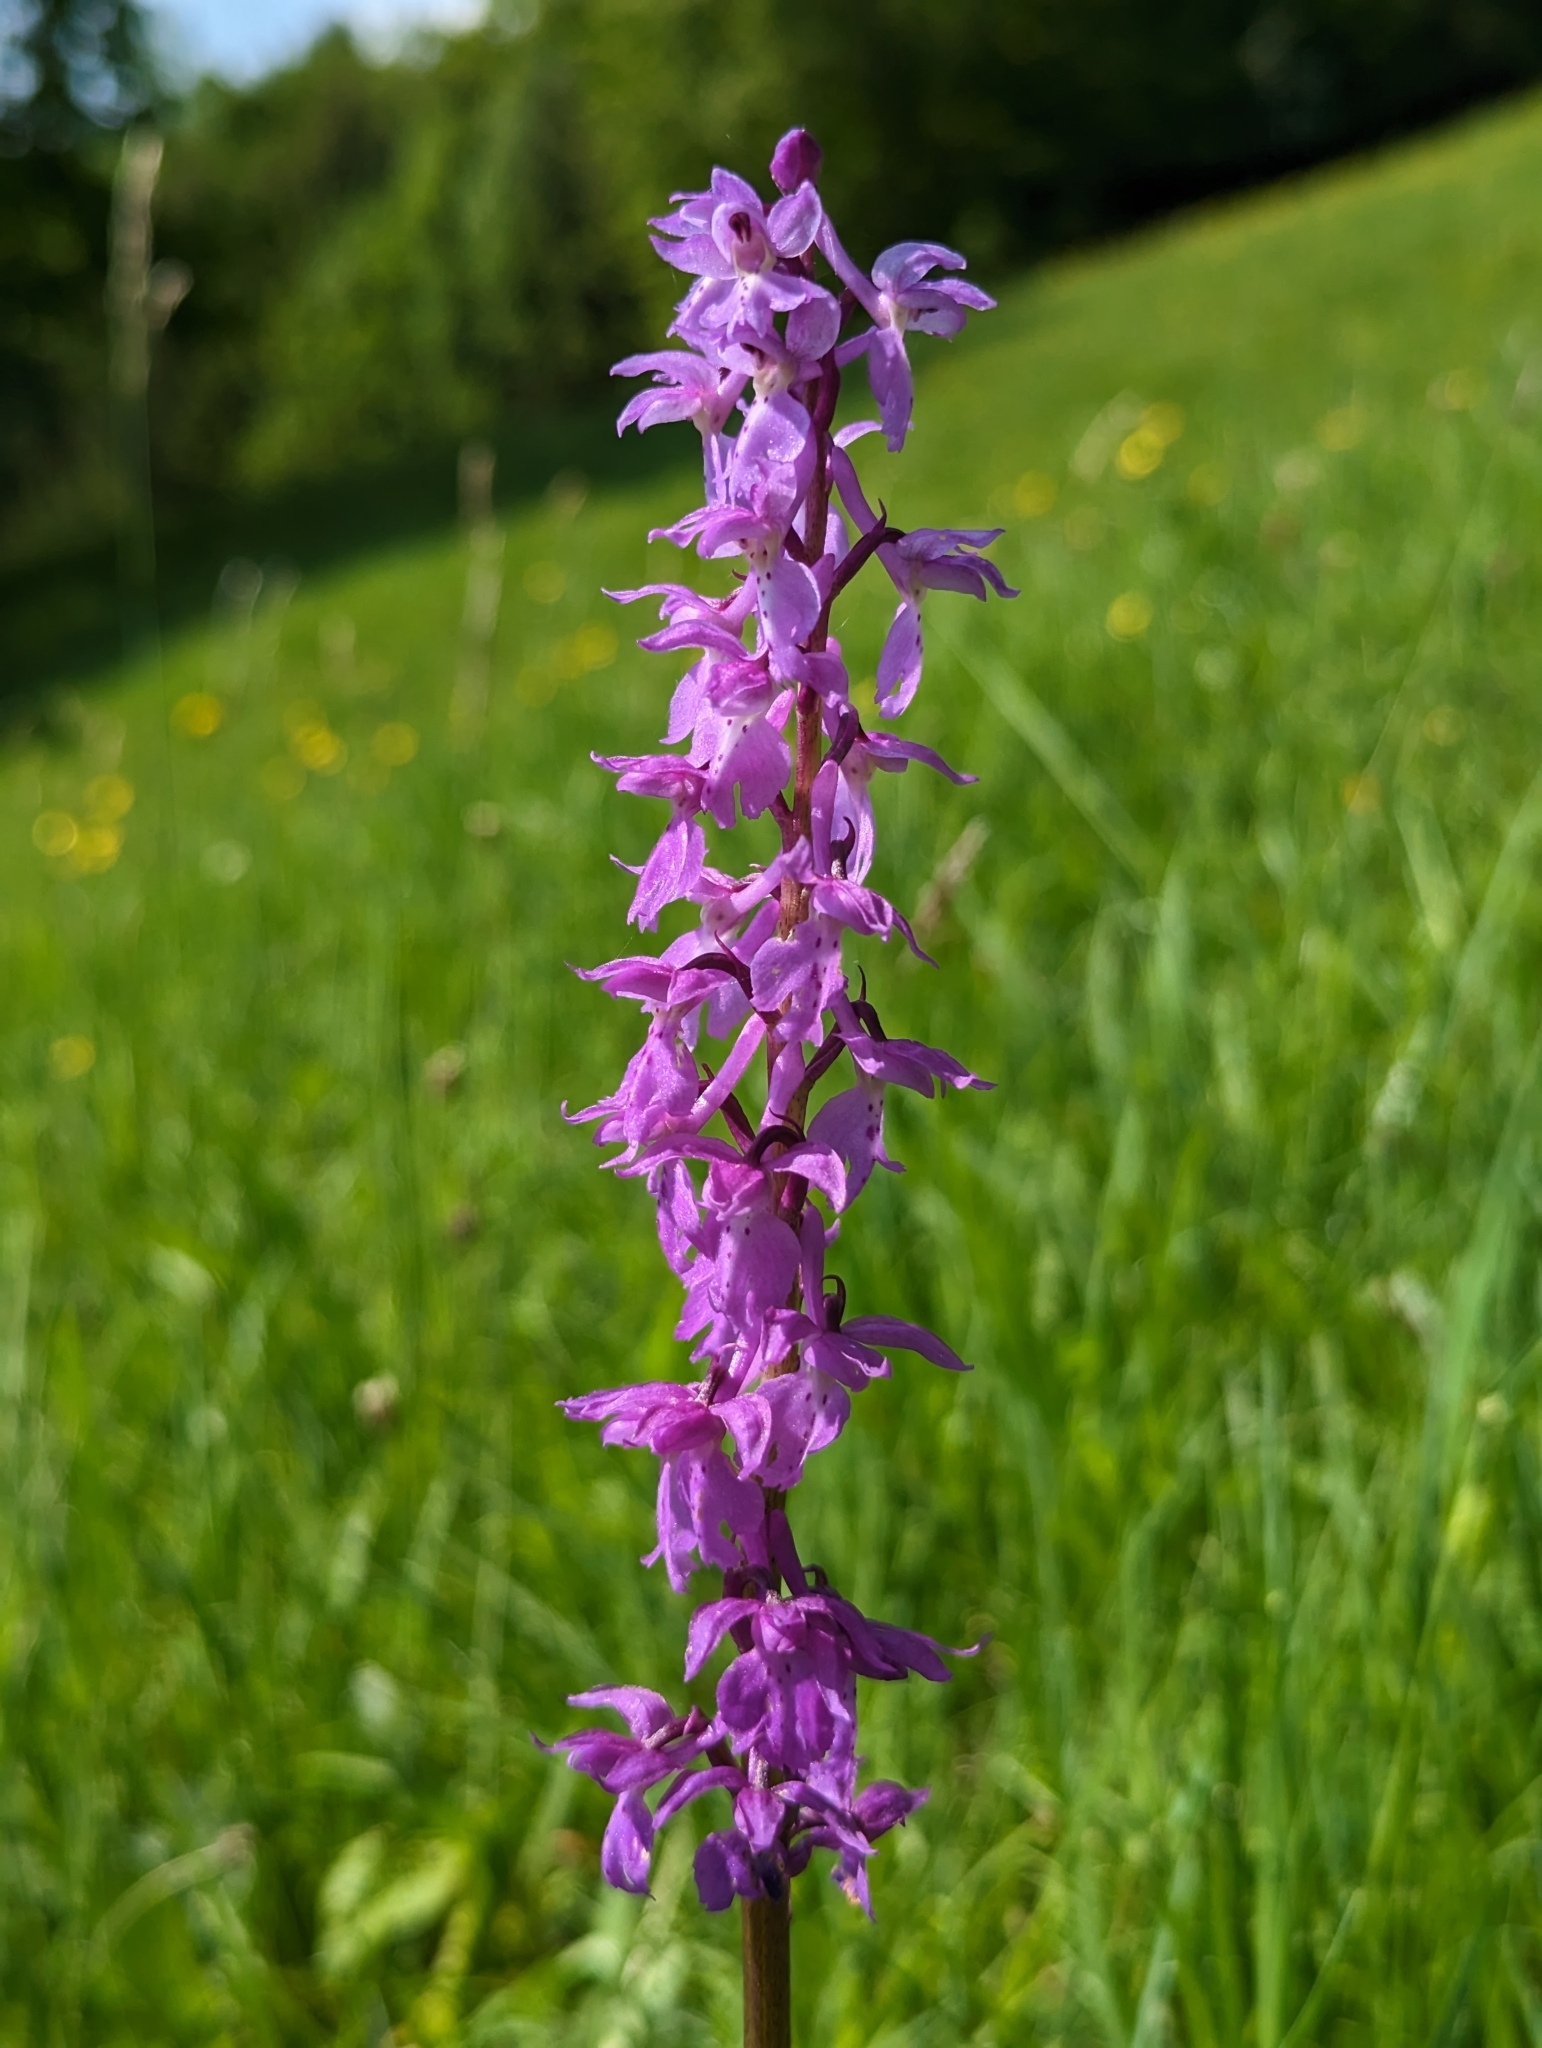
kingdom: Plantae
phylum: Tracheophyta
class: Liliopsida
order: Asparagales
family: Orchidaceae
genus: Orchis
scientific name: Orchis mascula
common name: Early-purple orchid
